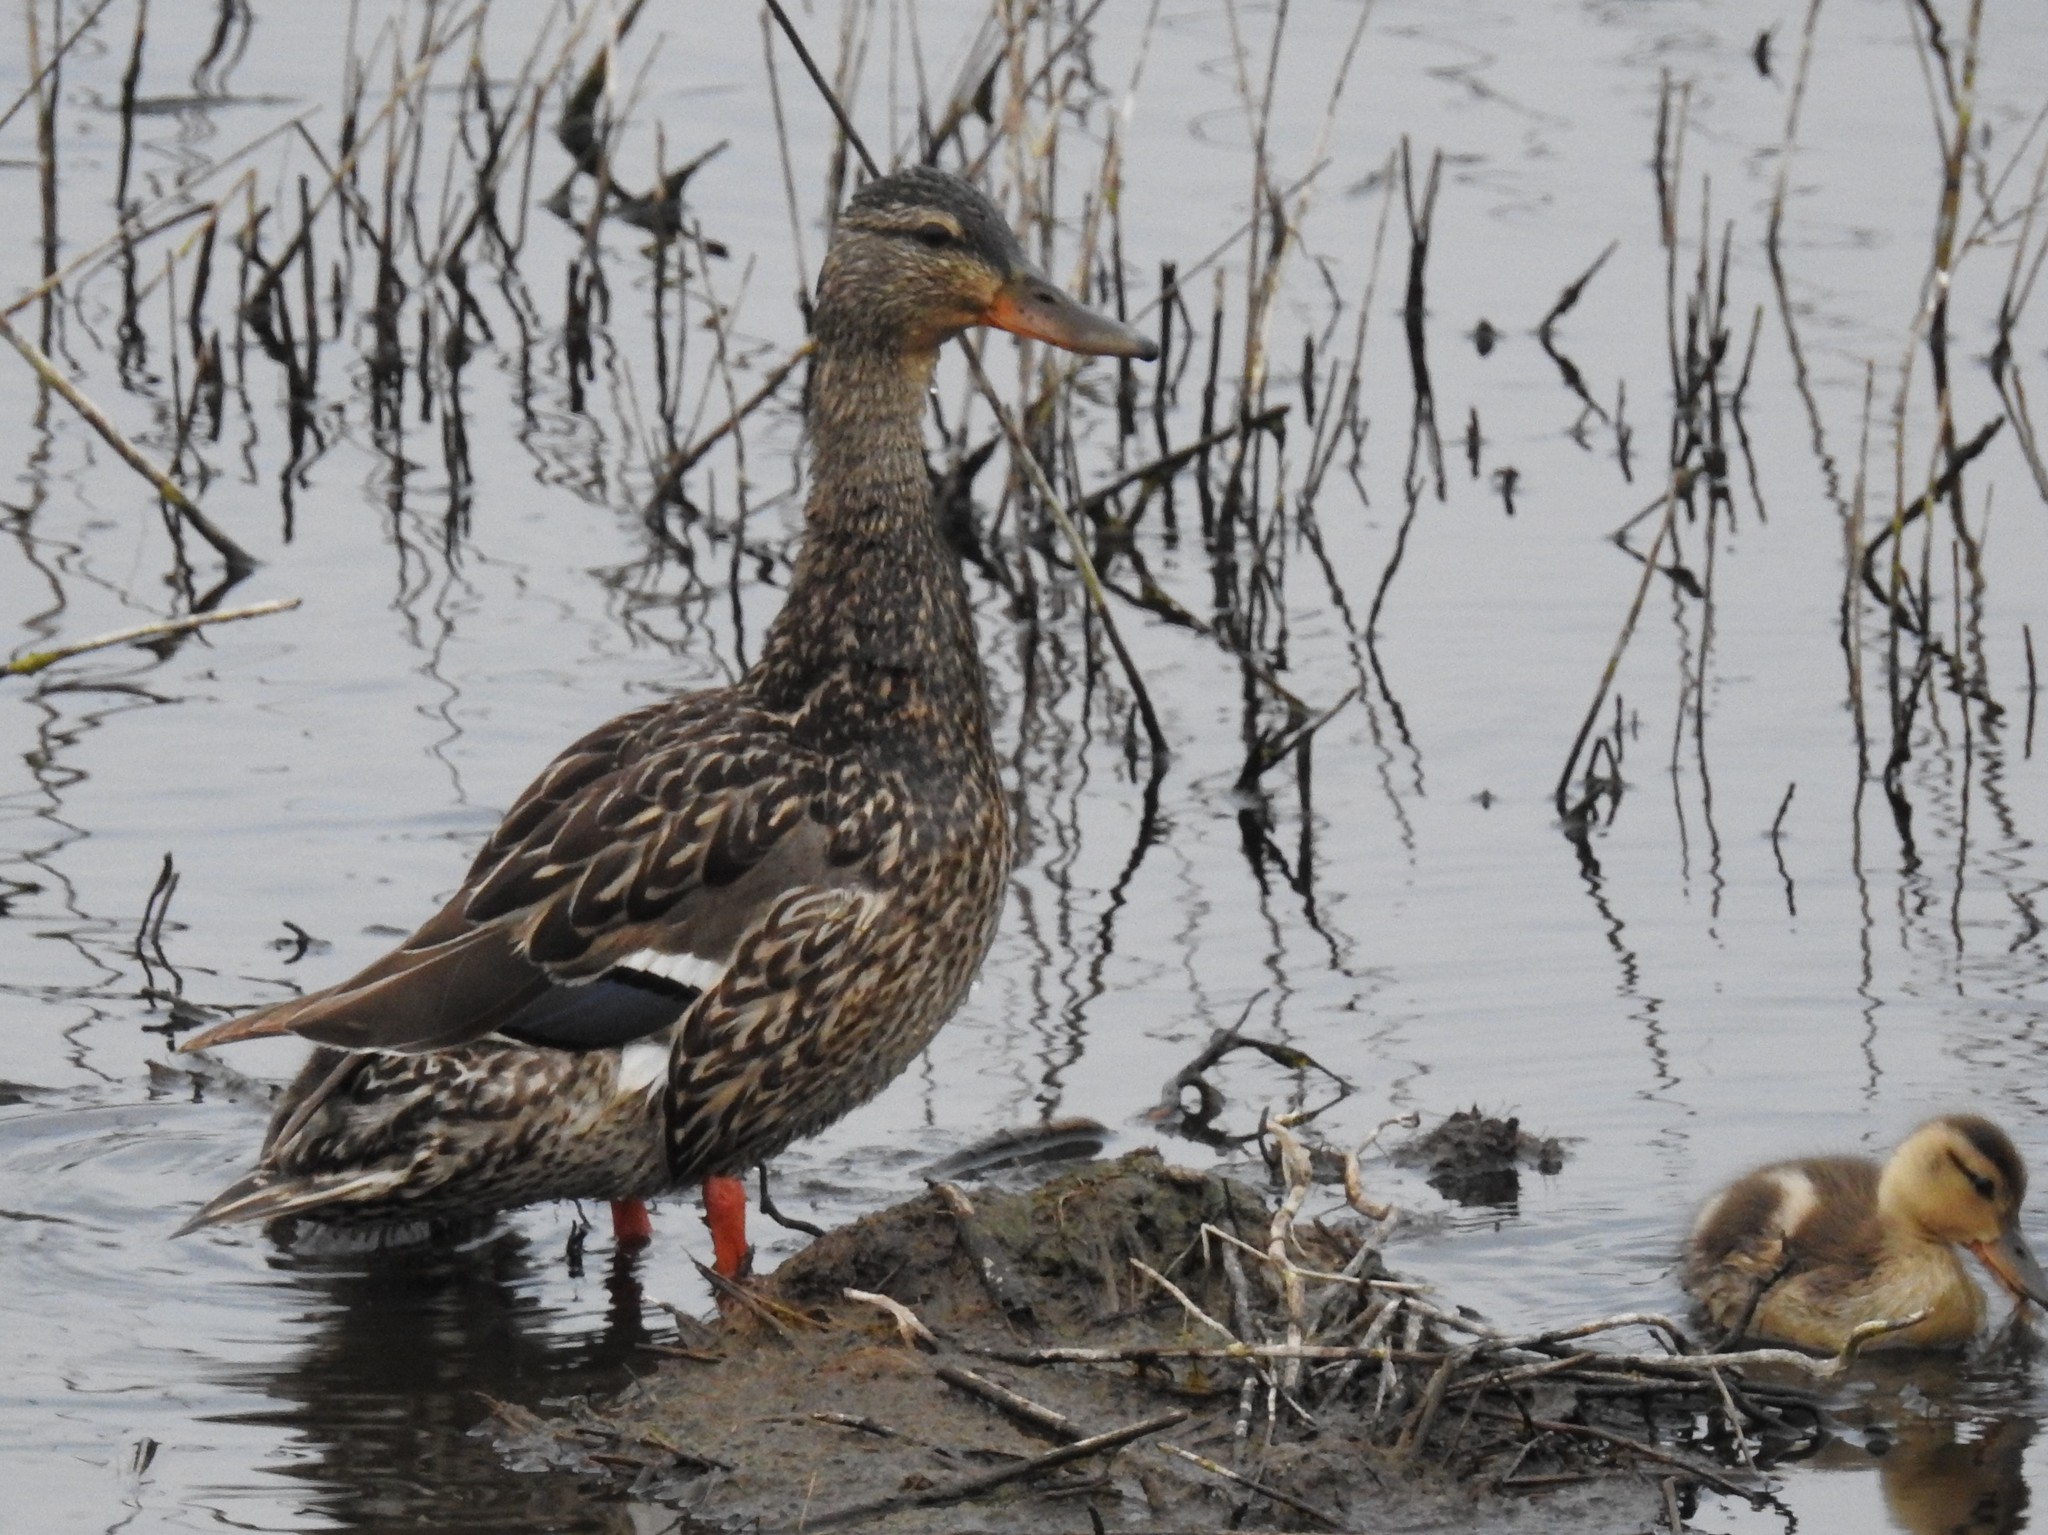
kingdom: Animalia
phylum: Chordata
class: Aves
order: Anseriformes
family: Anatidae
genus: Anas
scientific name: Anas platyrhynchos
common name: Mallard
